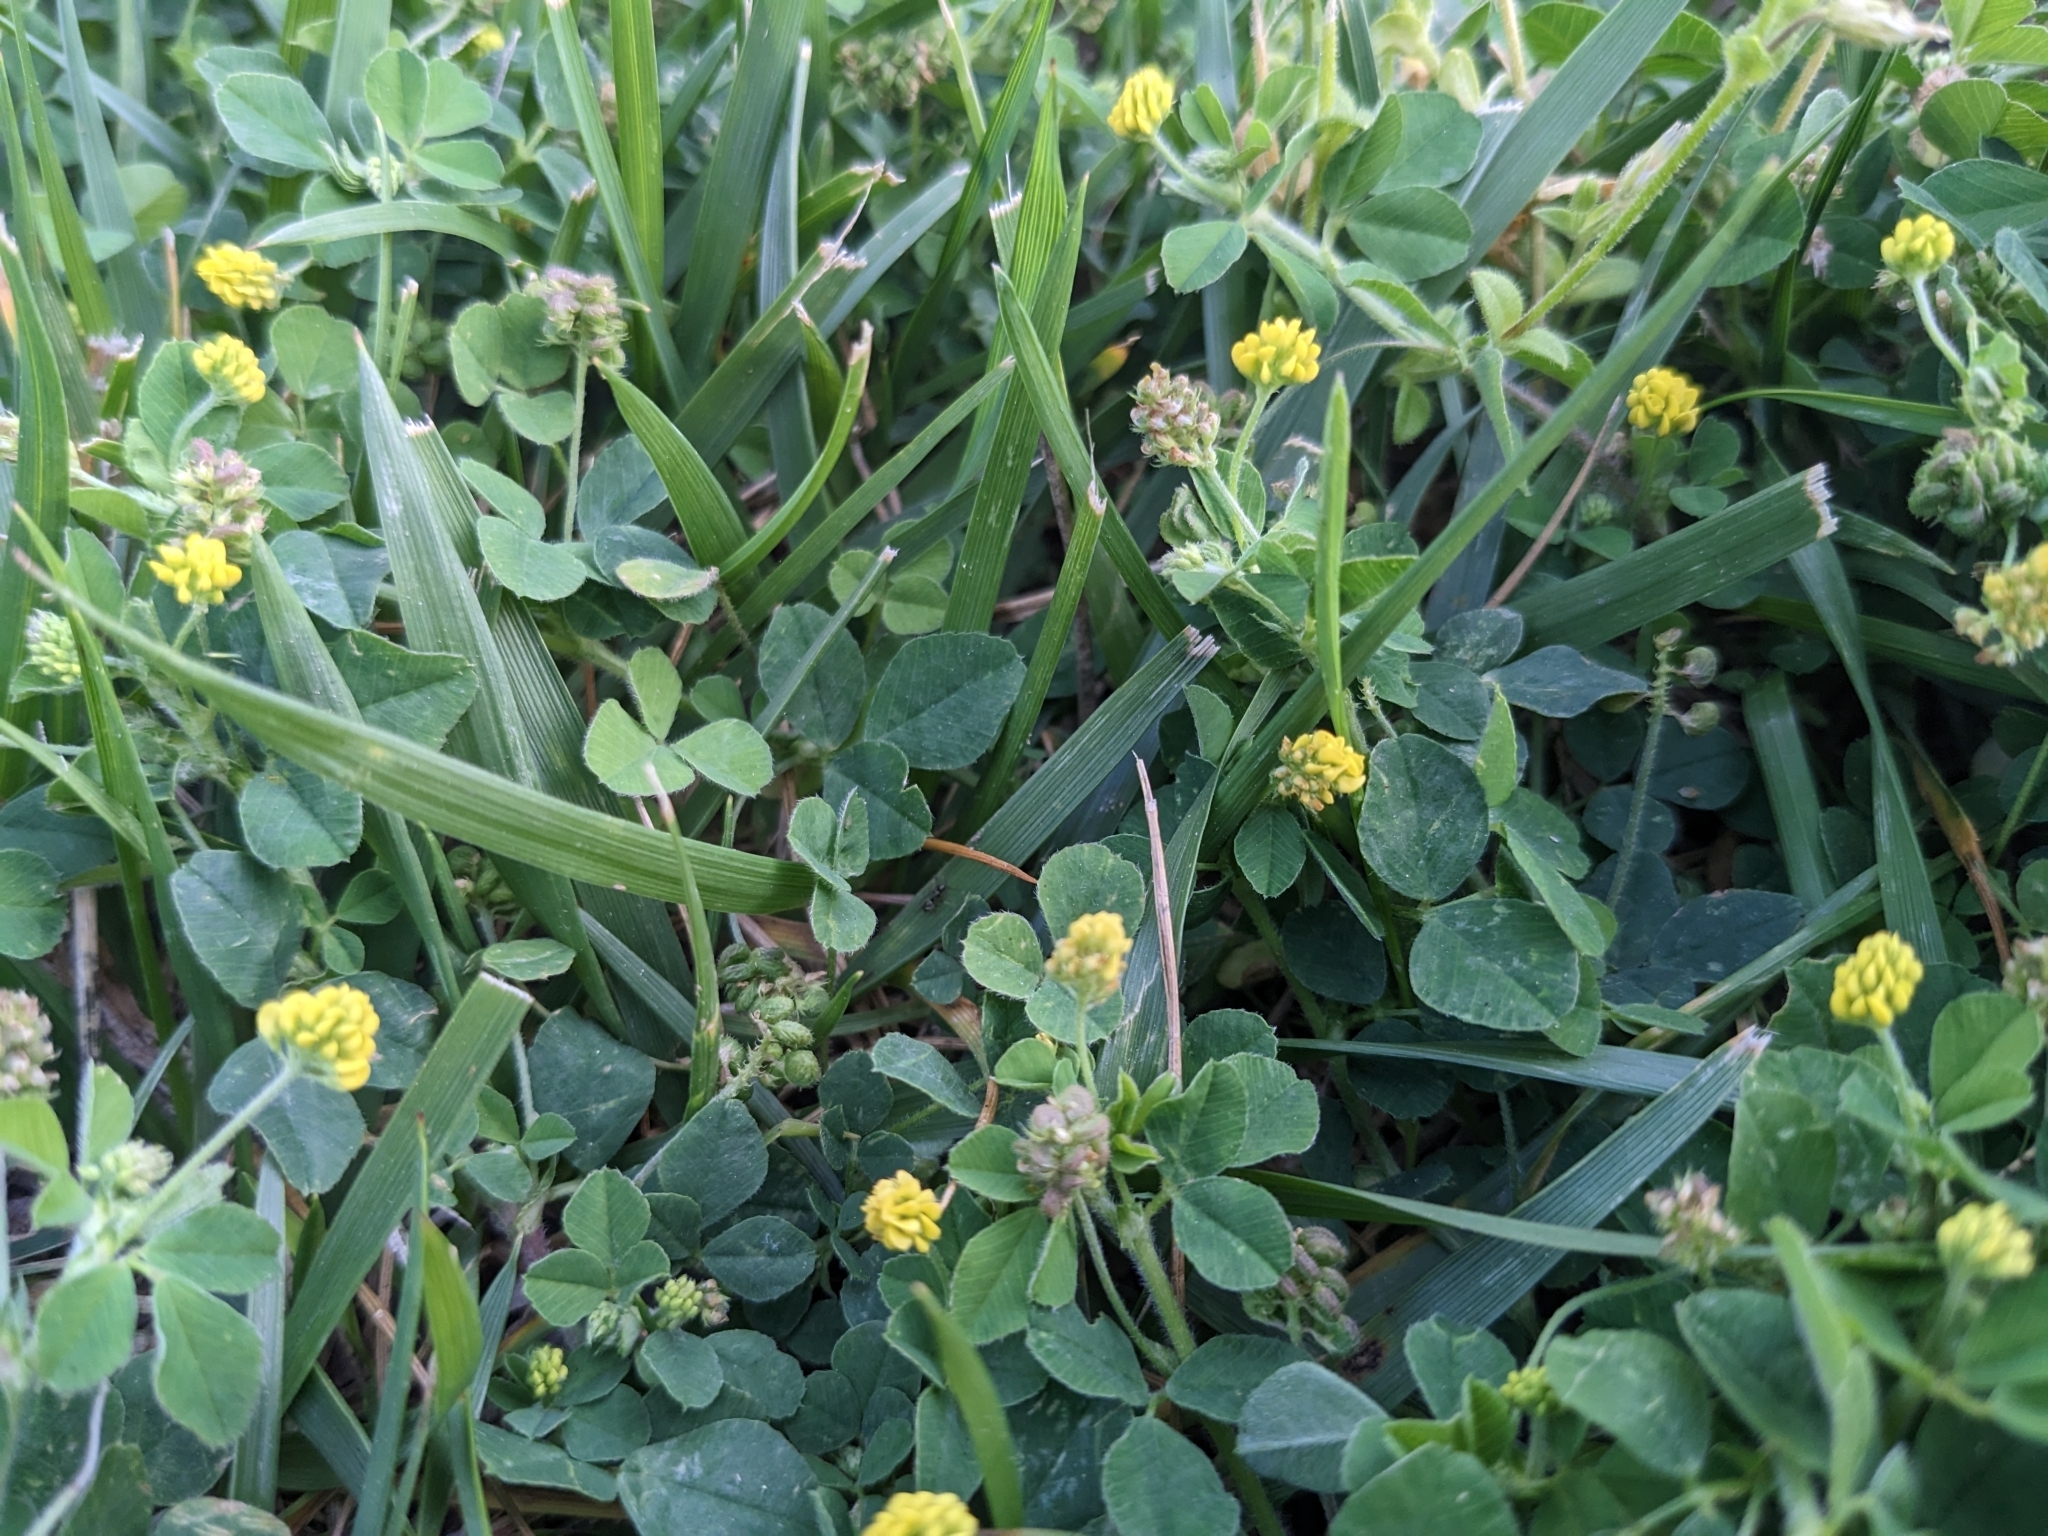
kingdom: Plantae
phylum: Tracheophyta
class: Magnoliopsida
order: Fabales
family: Fabaceae
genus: Medicago
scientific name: Medicago lupulina
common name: Black medick
